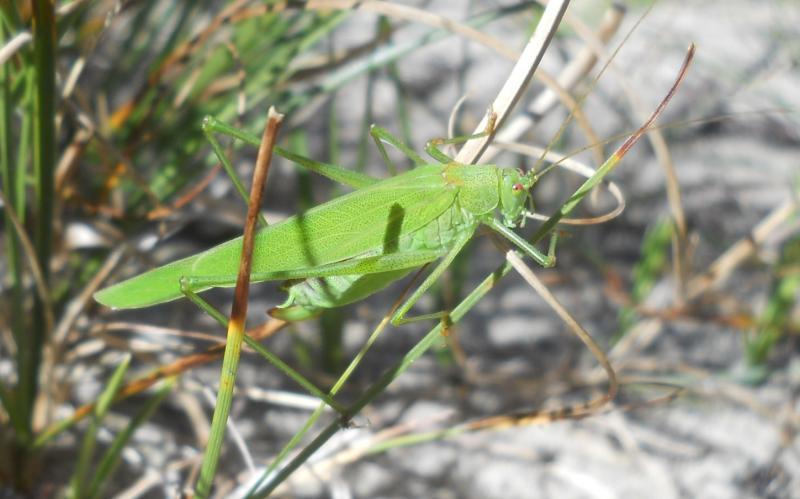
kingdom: Animalia
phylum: Arthropoda
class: Insecta
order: Orthoptera
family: Tettigoniidae
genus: Phaneroptera
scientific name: Phaneroptera falcata
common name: Sickle-bearing bush-cricket
